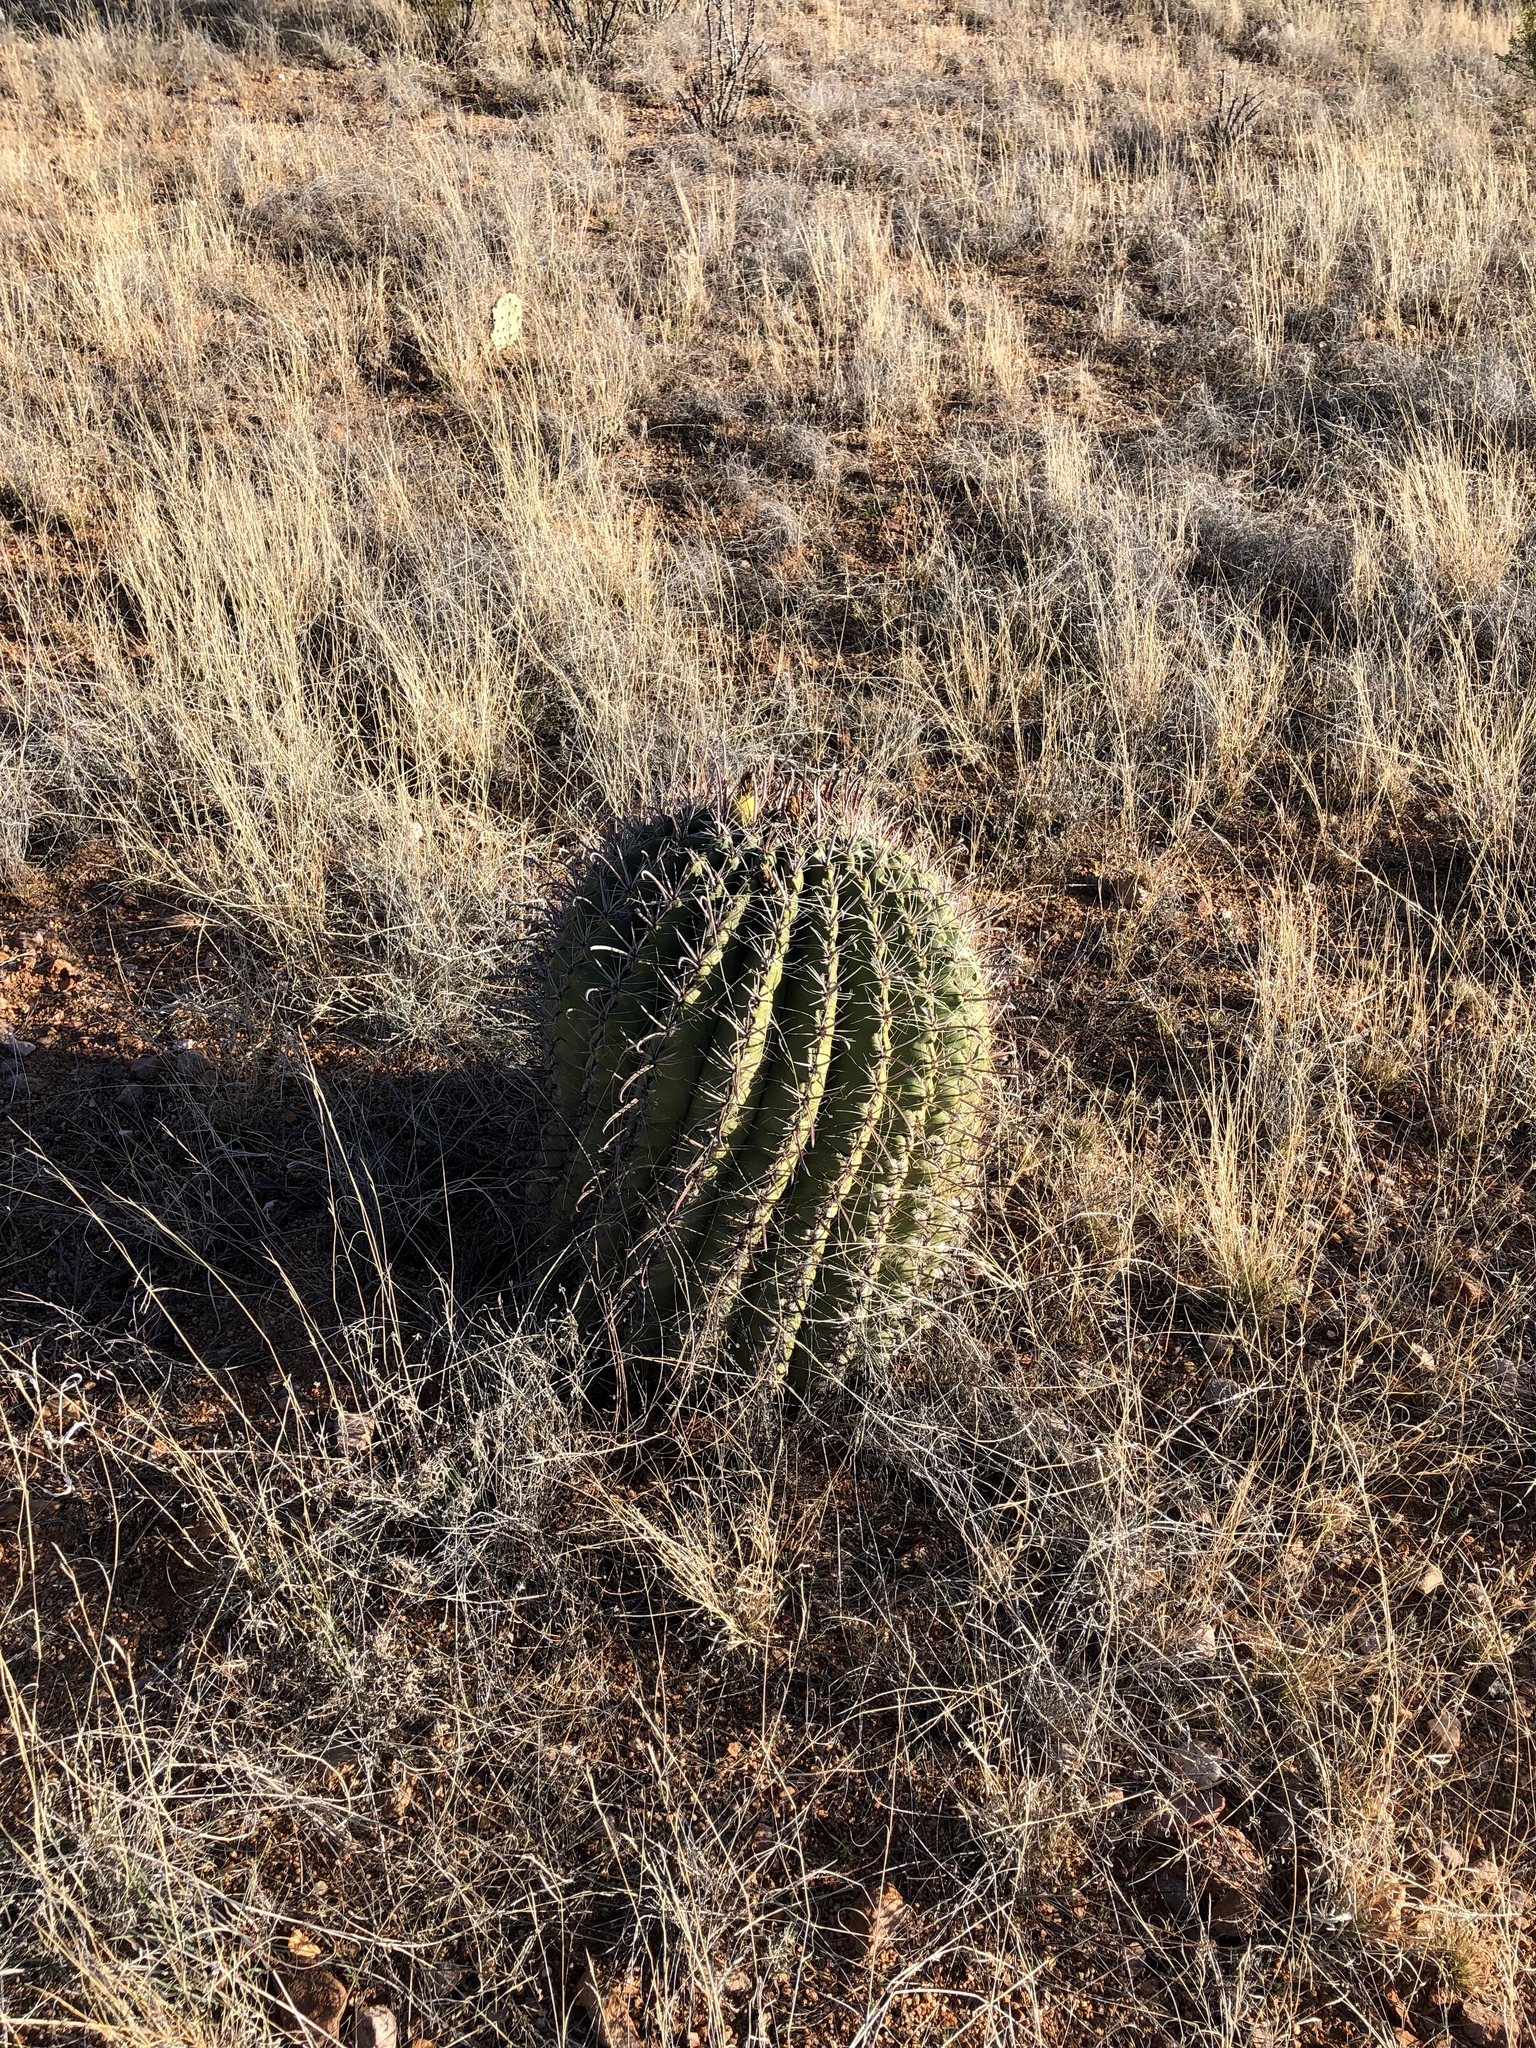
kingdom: Plantae
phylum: Tracheophyta
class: Magnoliopsida
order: Caryophyllales
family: Cactaceae
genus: Ferocactus
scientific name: Ferocactus wislizeni
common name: Candy barrel cactus
